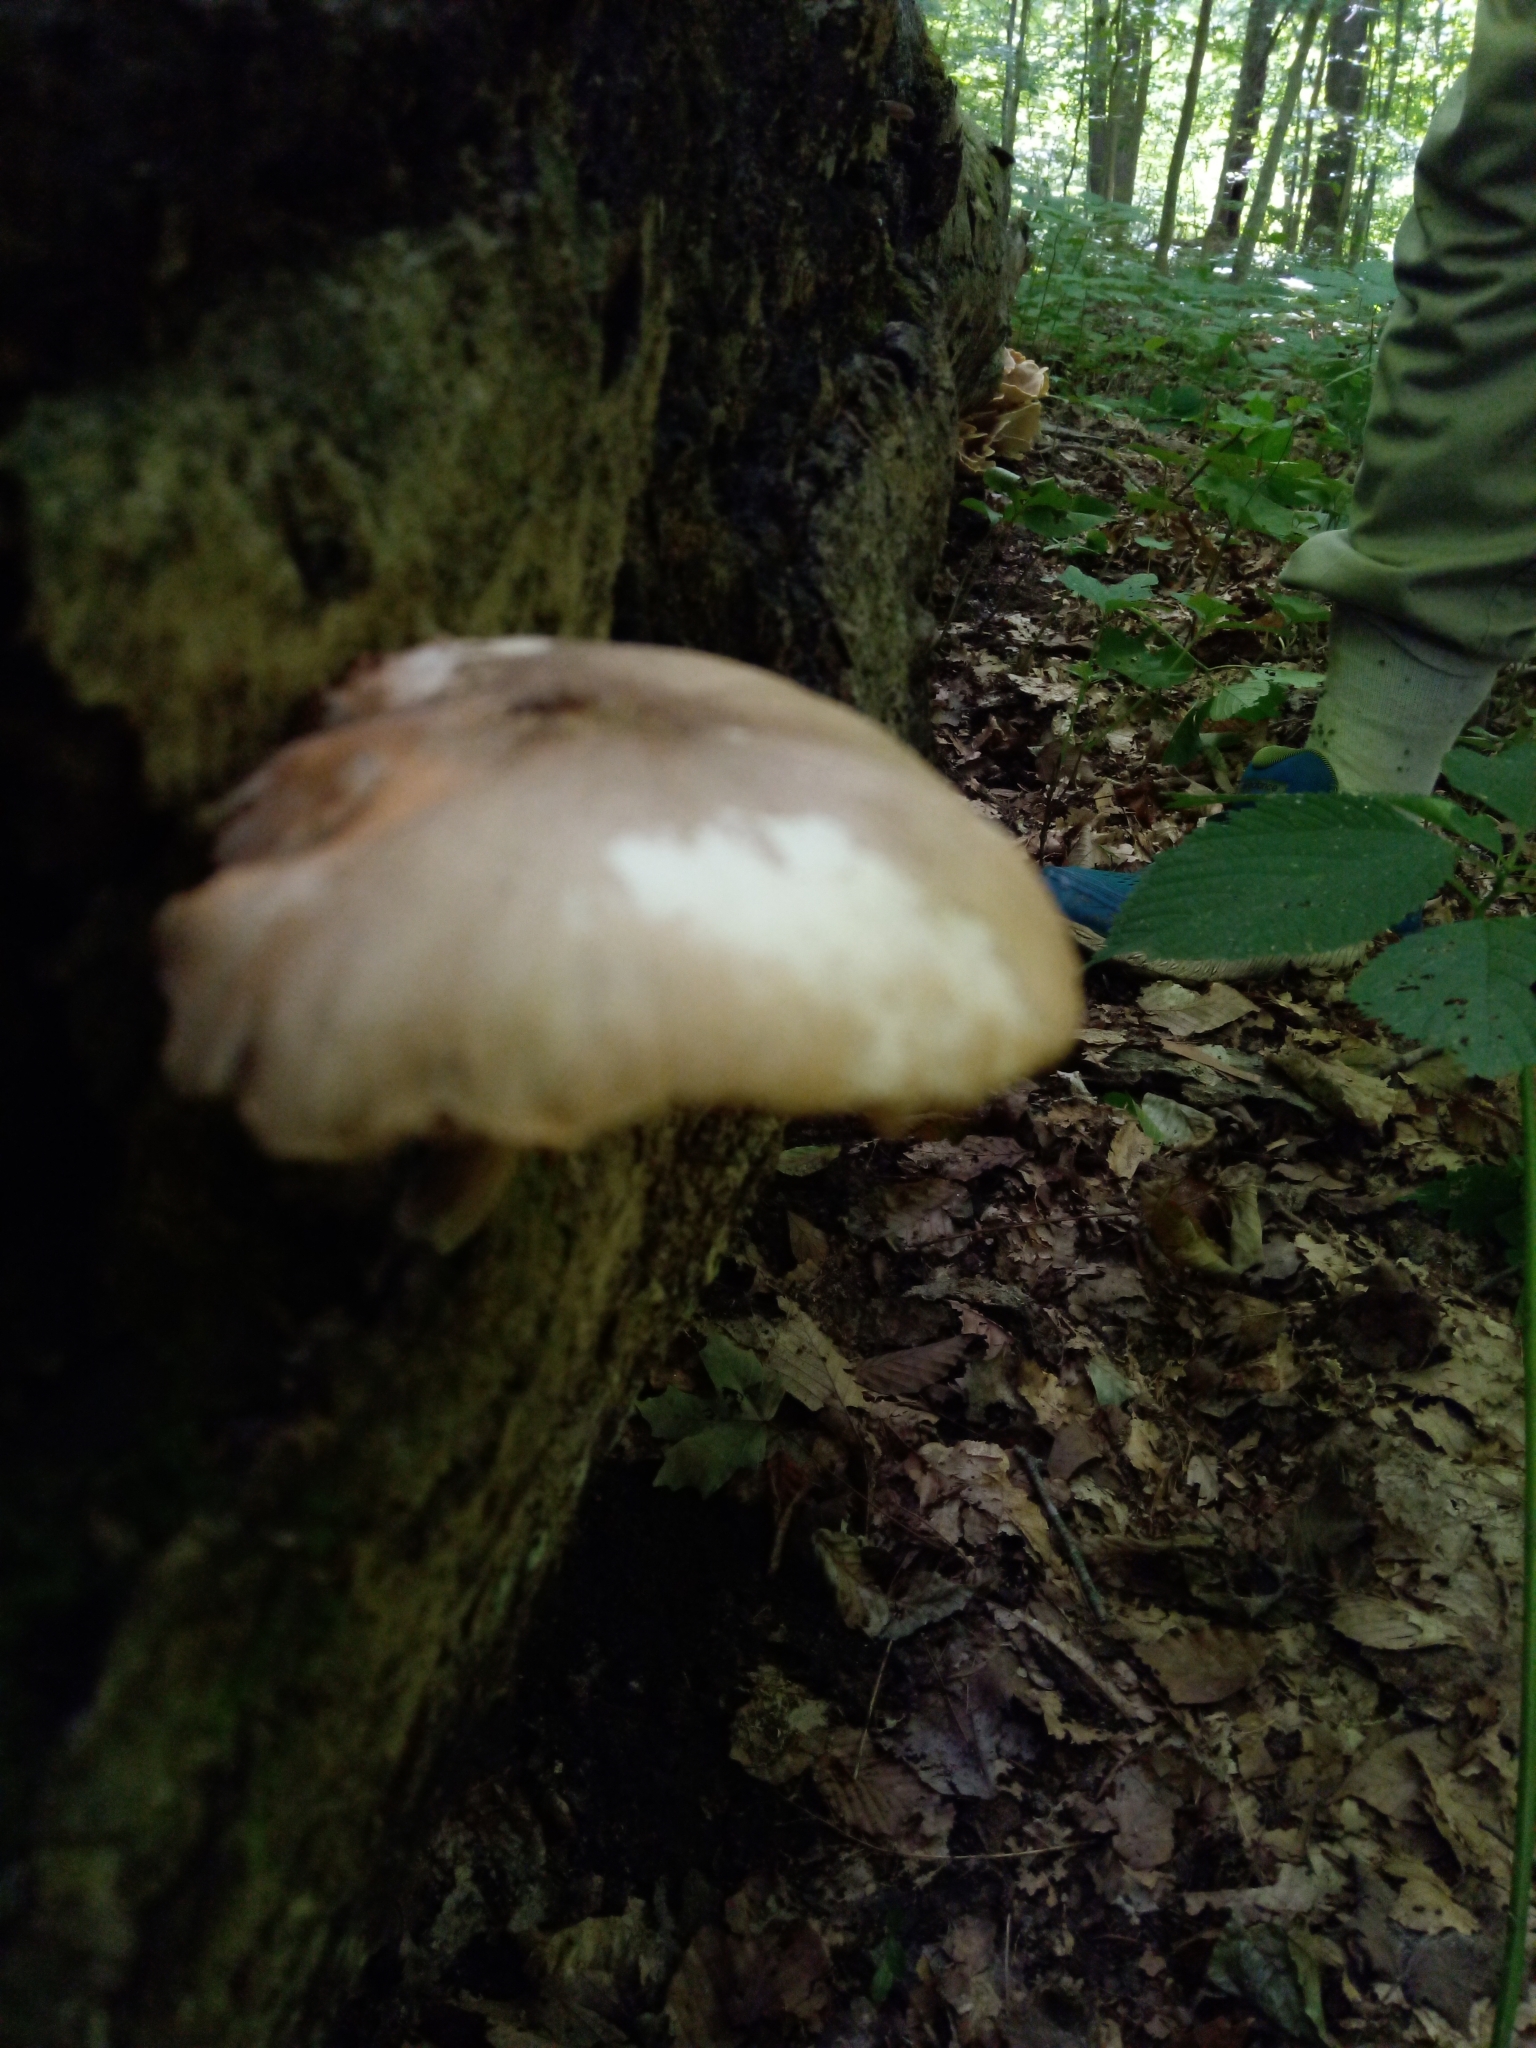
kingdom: Fungi
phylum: Basidiomycota
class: Agaricomycetes
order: Agaricales
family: Pluteaceae
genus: Pluteus
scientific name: Pluteus americanus
